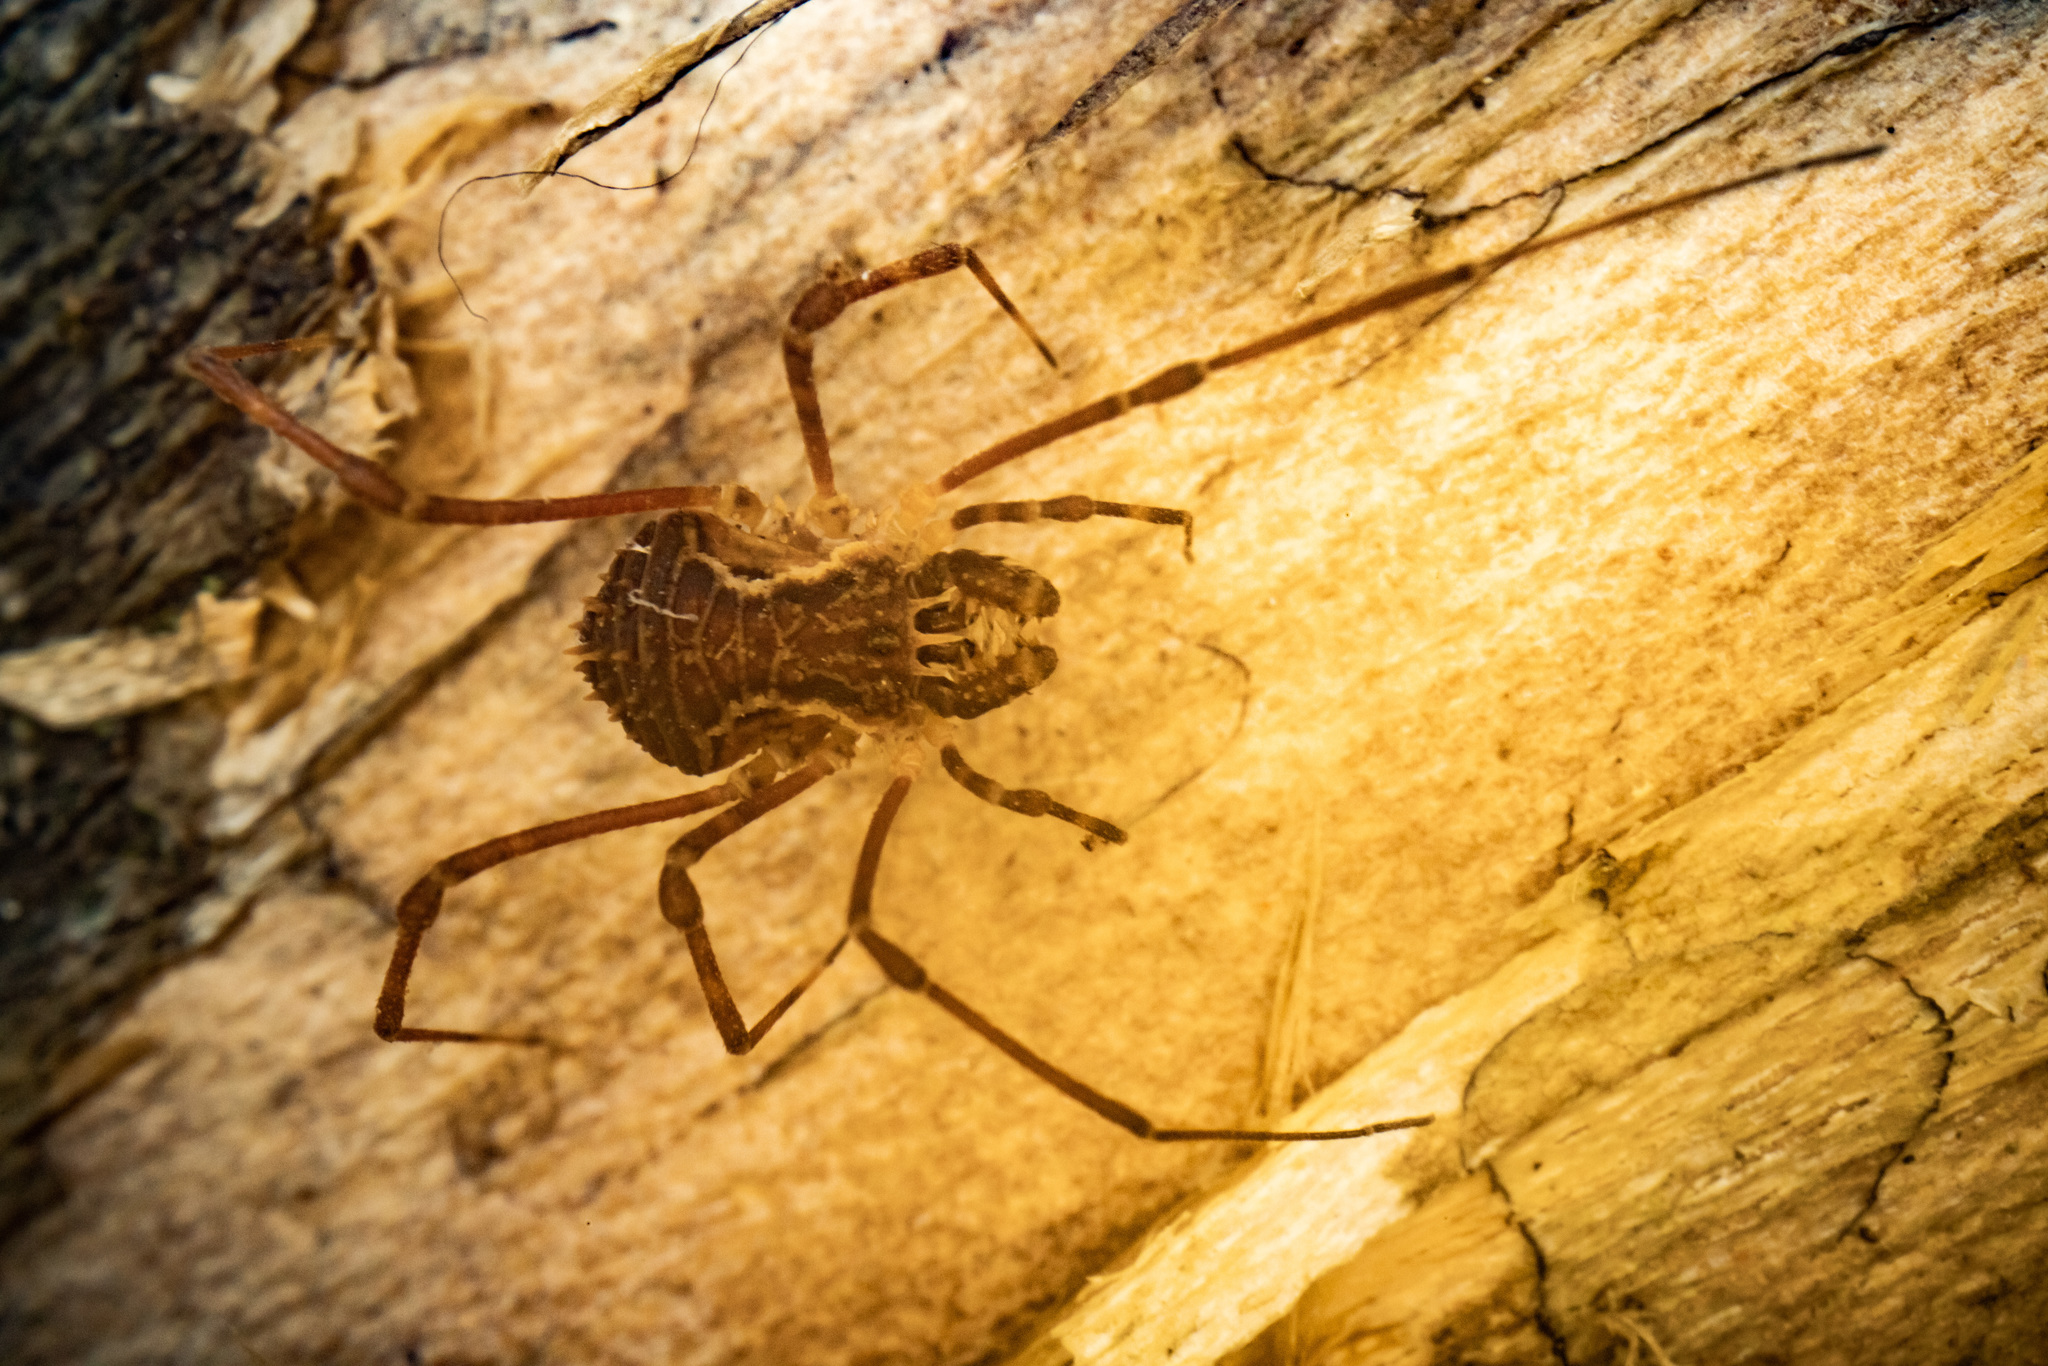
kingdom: Animalia
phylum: Arthropoda
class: Arachnida
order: Opiliones
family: Triaenonychidae
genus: Algidia
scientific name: Algidia chiltoni
